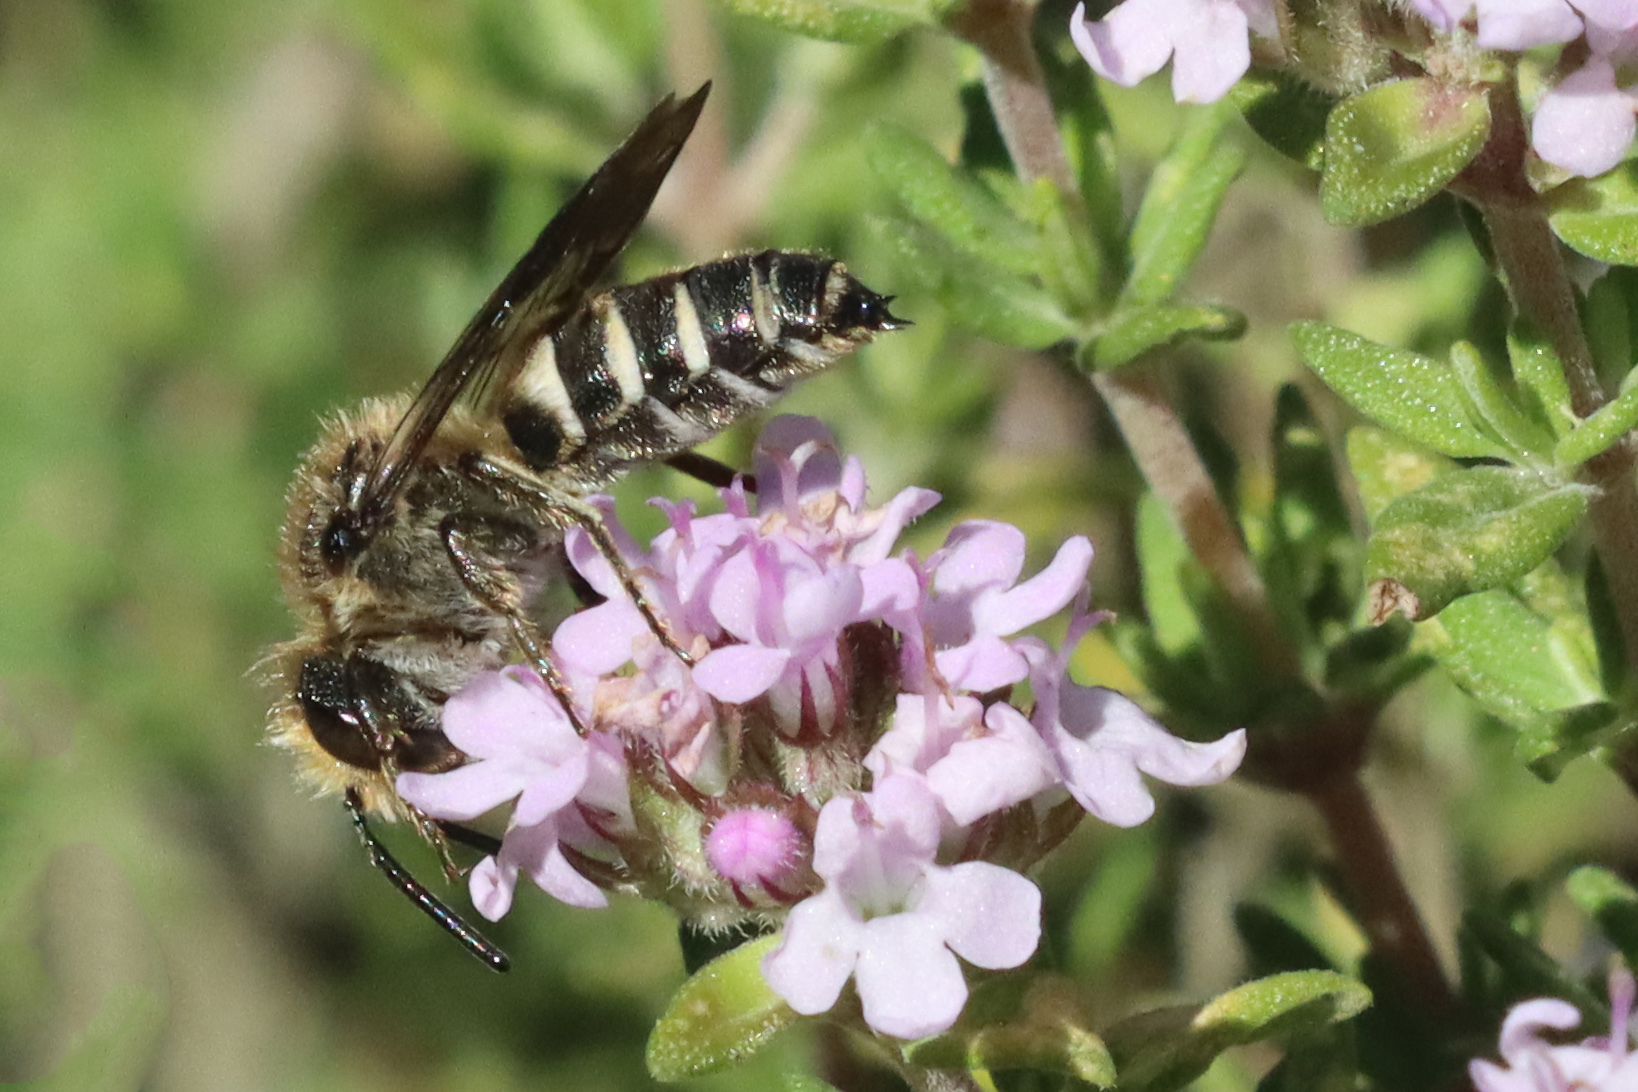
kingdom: Animalia
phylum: Arthropoda
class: Insecta
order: Hymenoptera
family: Megachilidae
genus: Coelioxys
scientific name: Coelioxys
